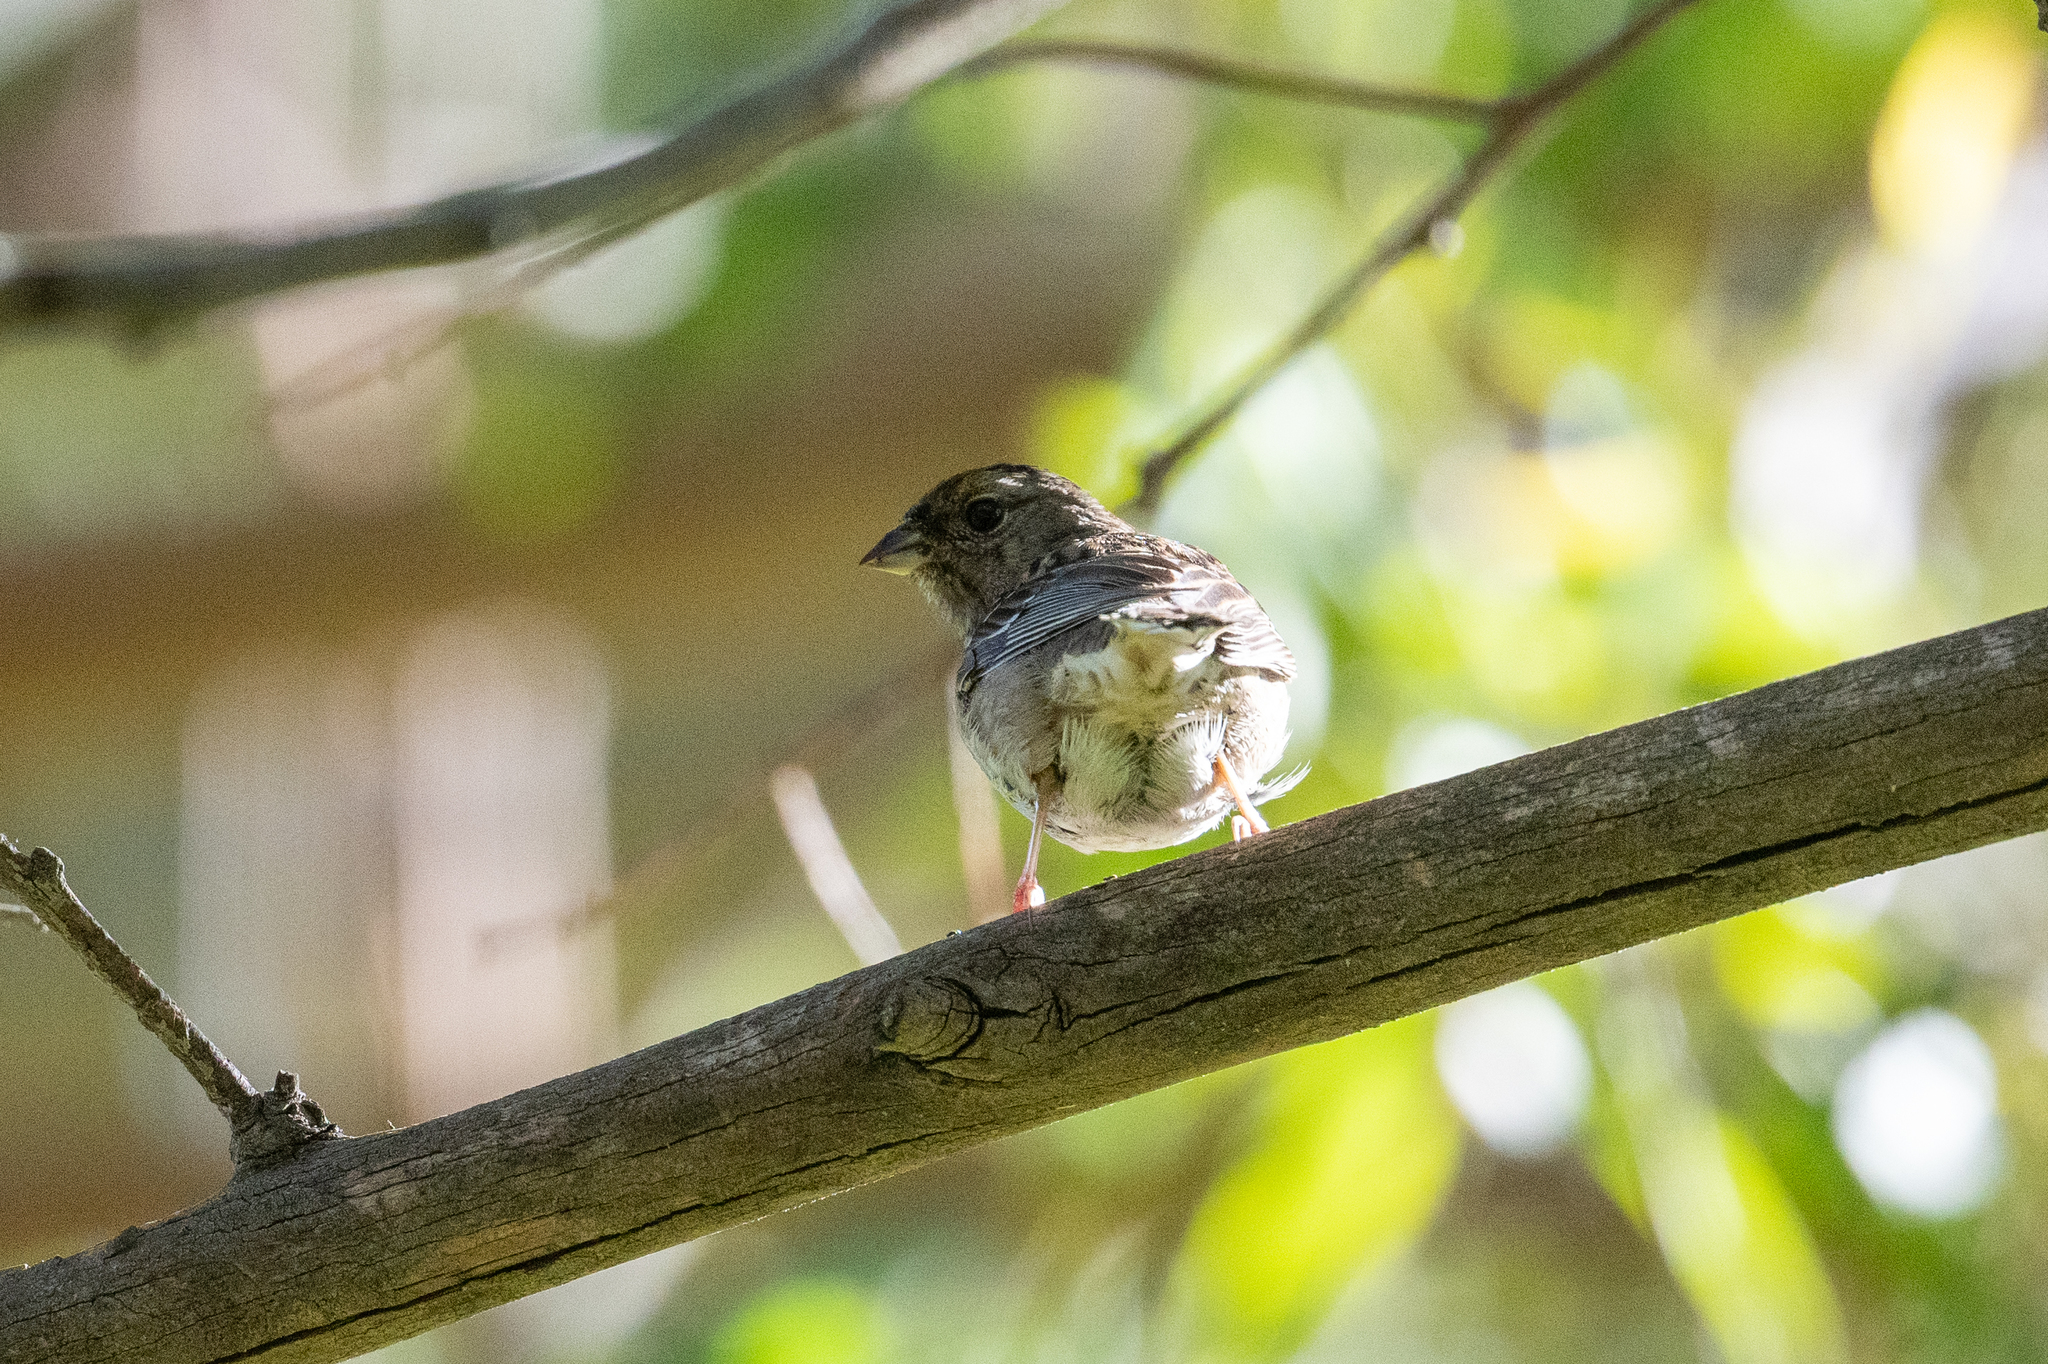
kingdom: Animalia
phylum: Chordata
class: Aves
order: Passeriformes
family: Passerellidae
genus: Zonotrichia
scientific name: Zonotrichia atricapilla
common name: Golden-crowned sparrow
